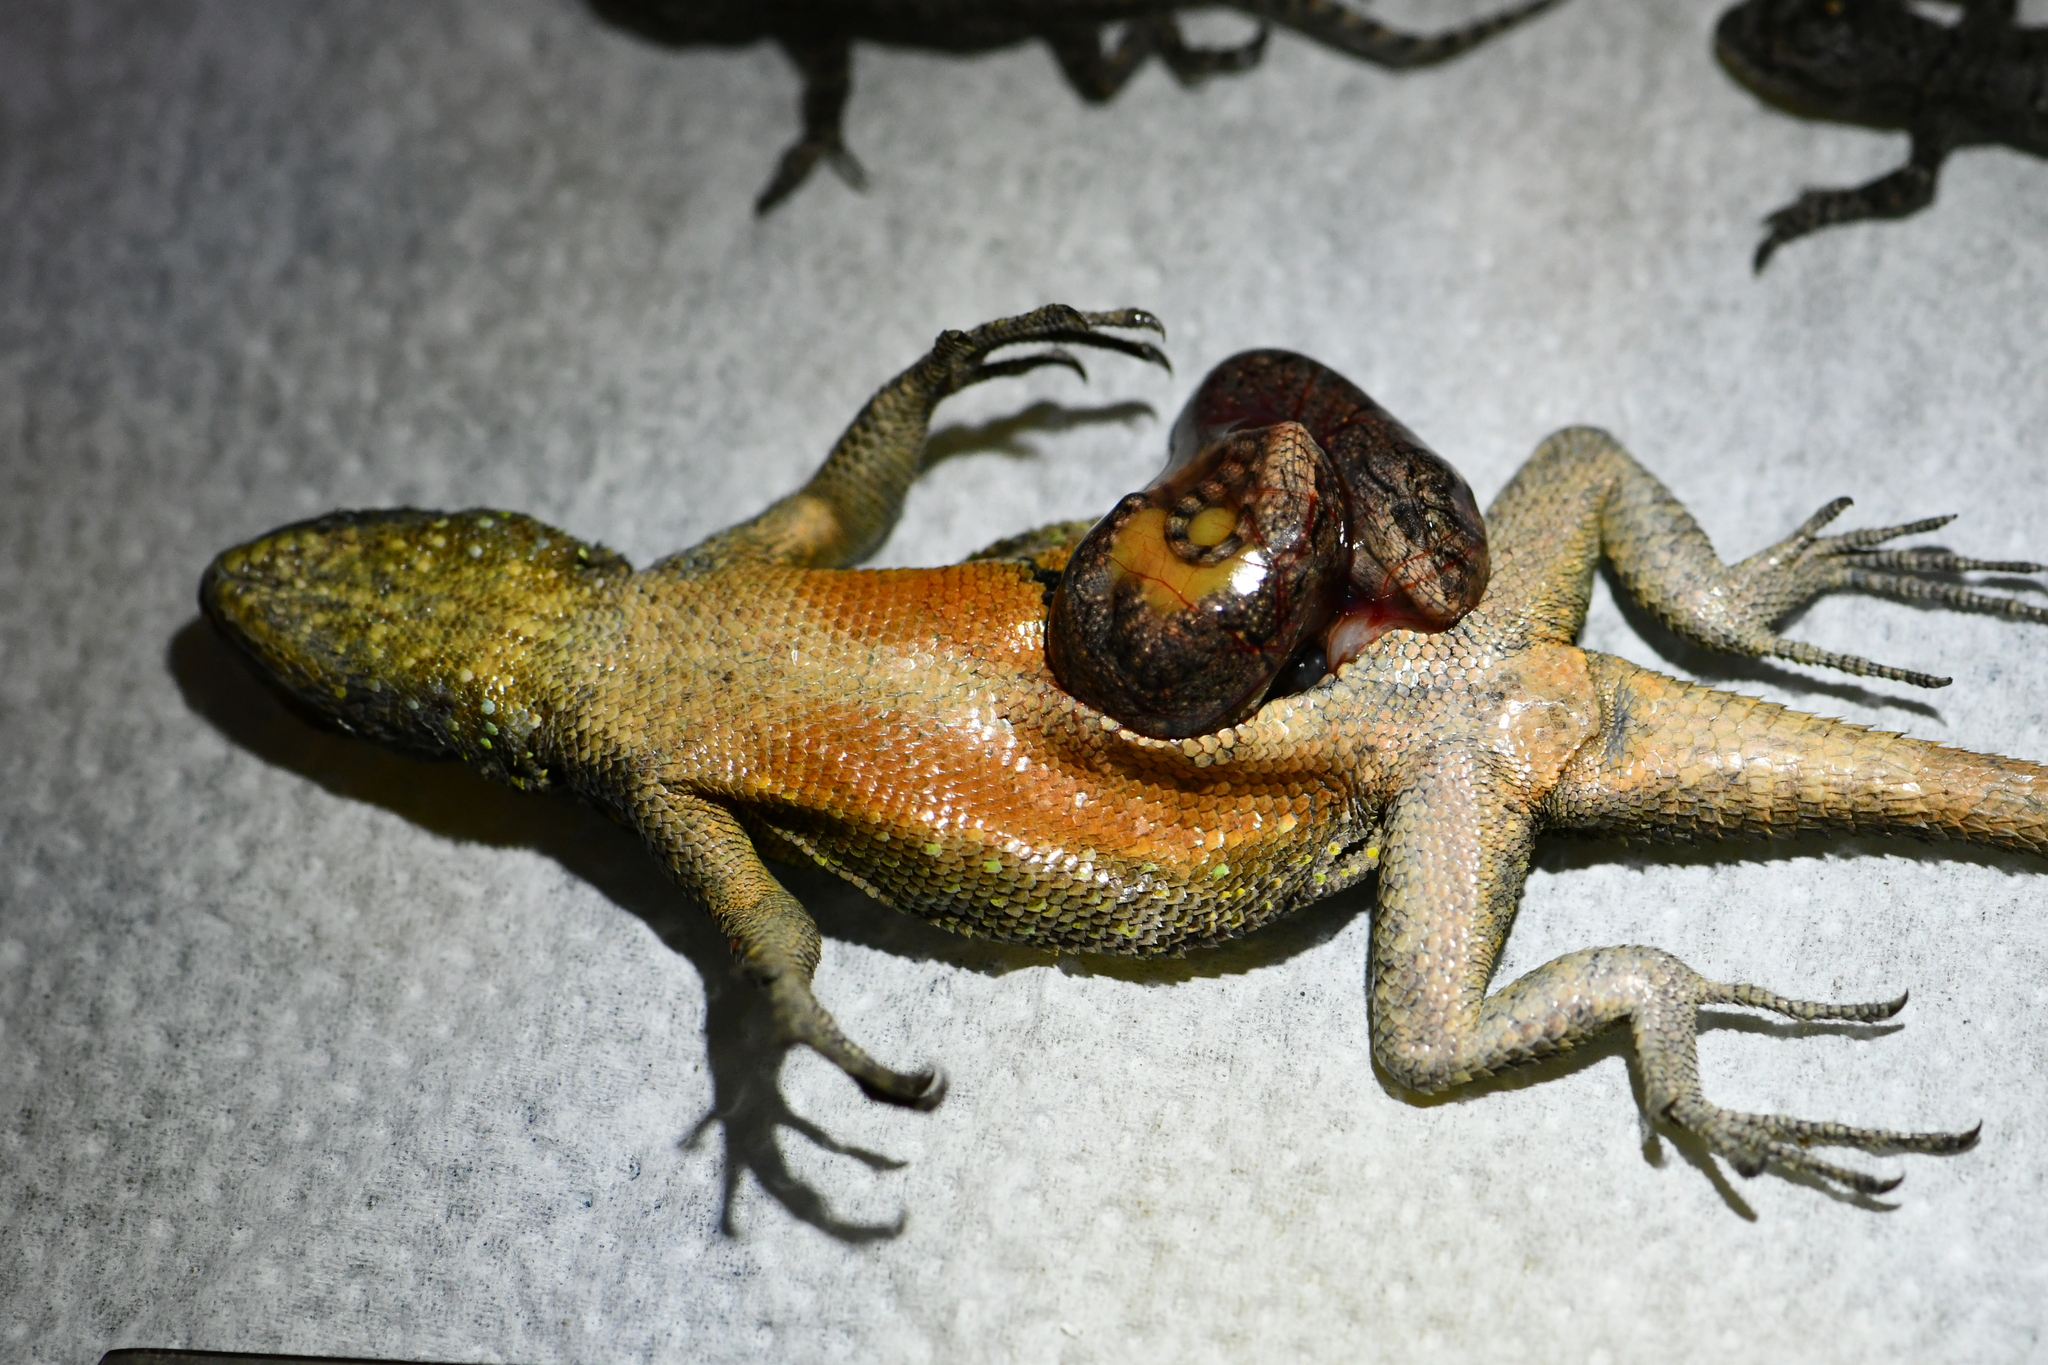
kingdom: Animalia
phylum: Chordata
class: Squamata
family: Phrynosomatidae
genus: Sceloporus
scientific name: Sceloporus grammicus
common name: Mesquite lizard
